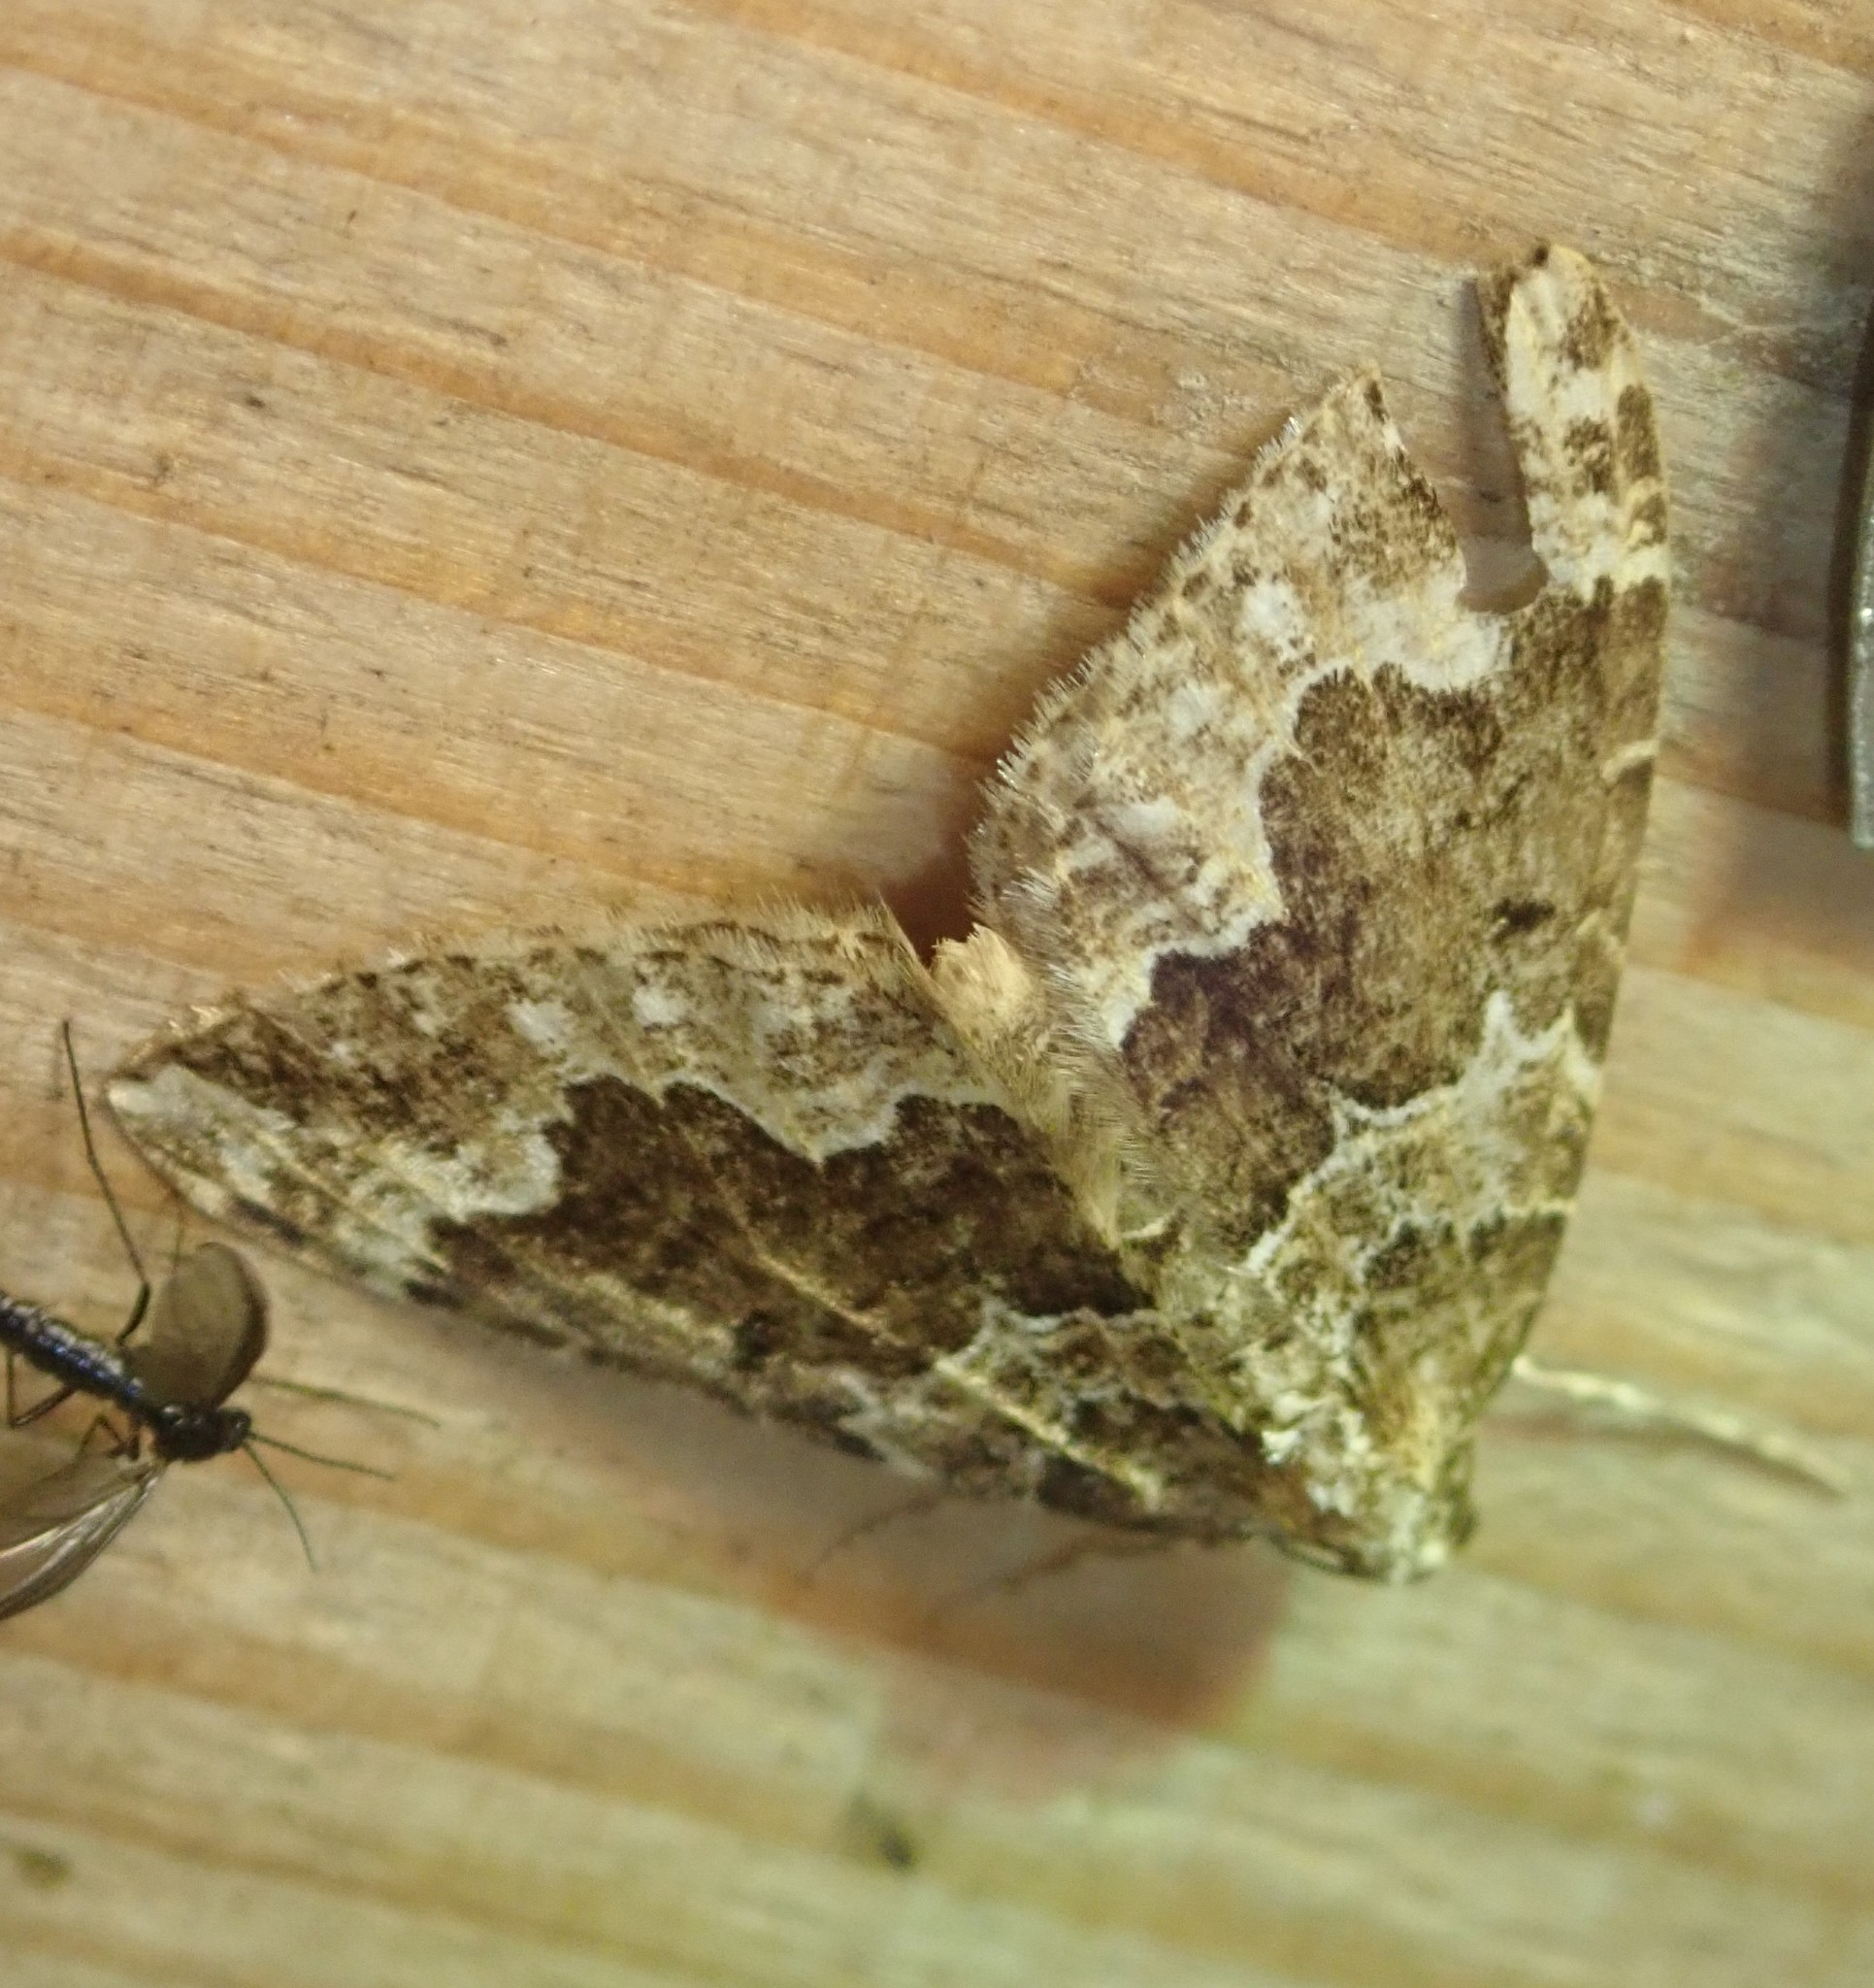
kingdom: Animalia
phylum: Arthropoda
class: Insecta
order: Lepidoptera
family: Geometridae
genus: Lampropteryx
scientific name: Lampropteryx suffumata
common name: Water carpet
